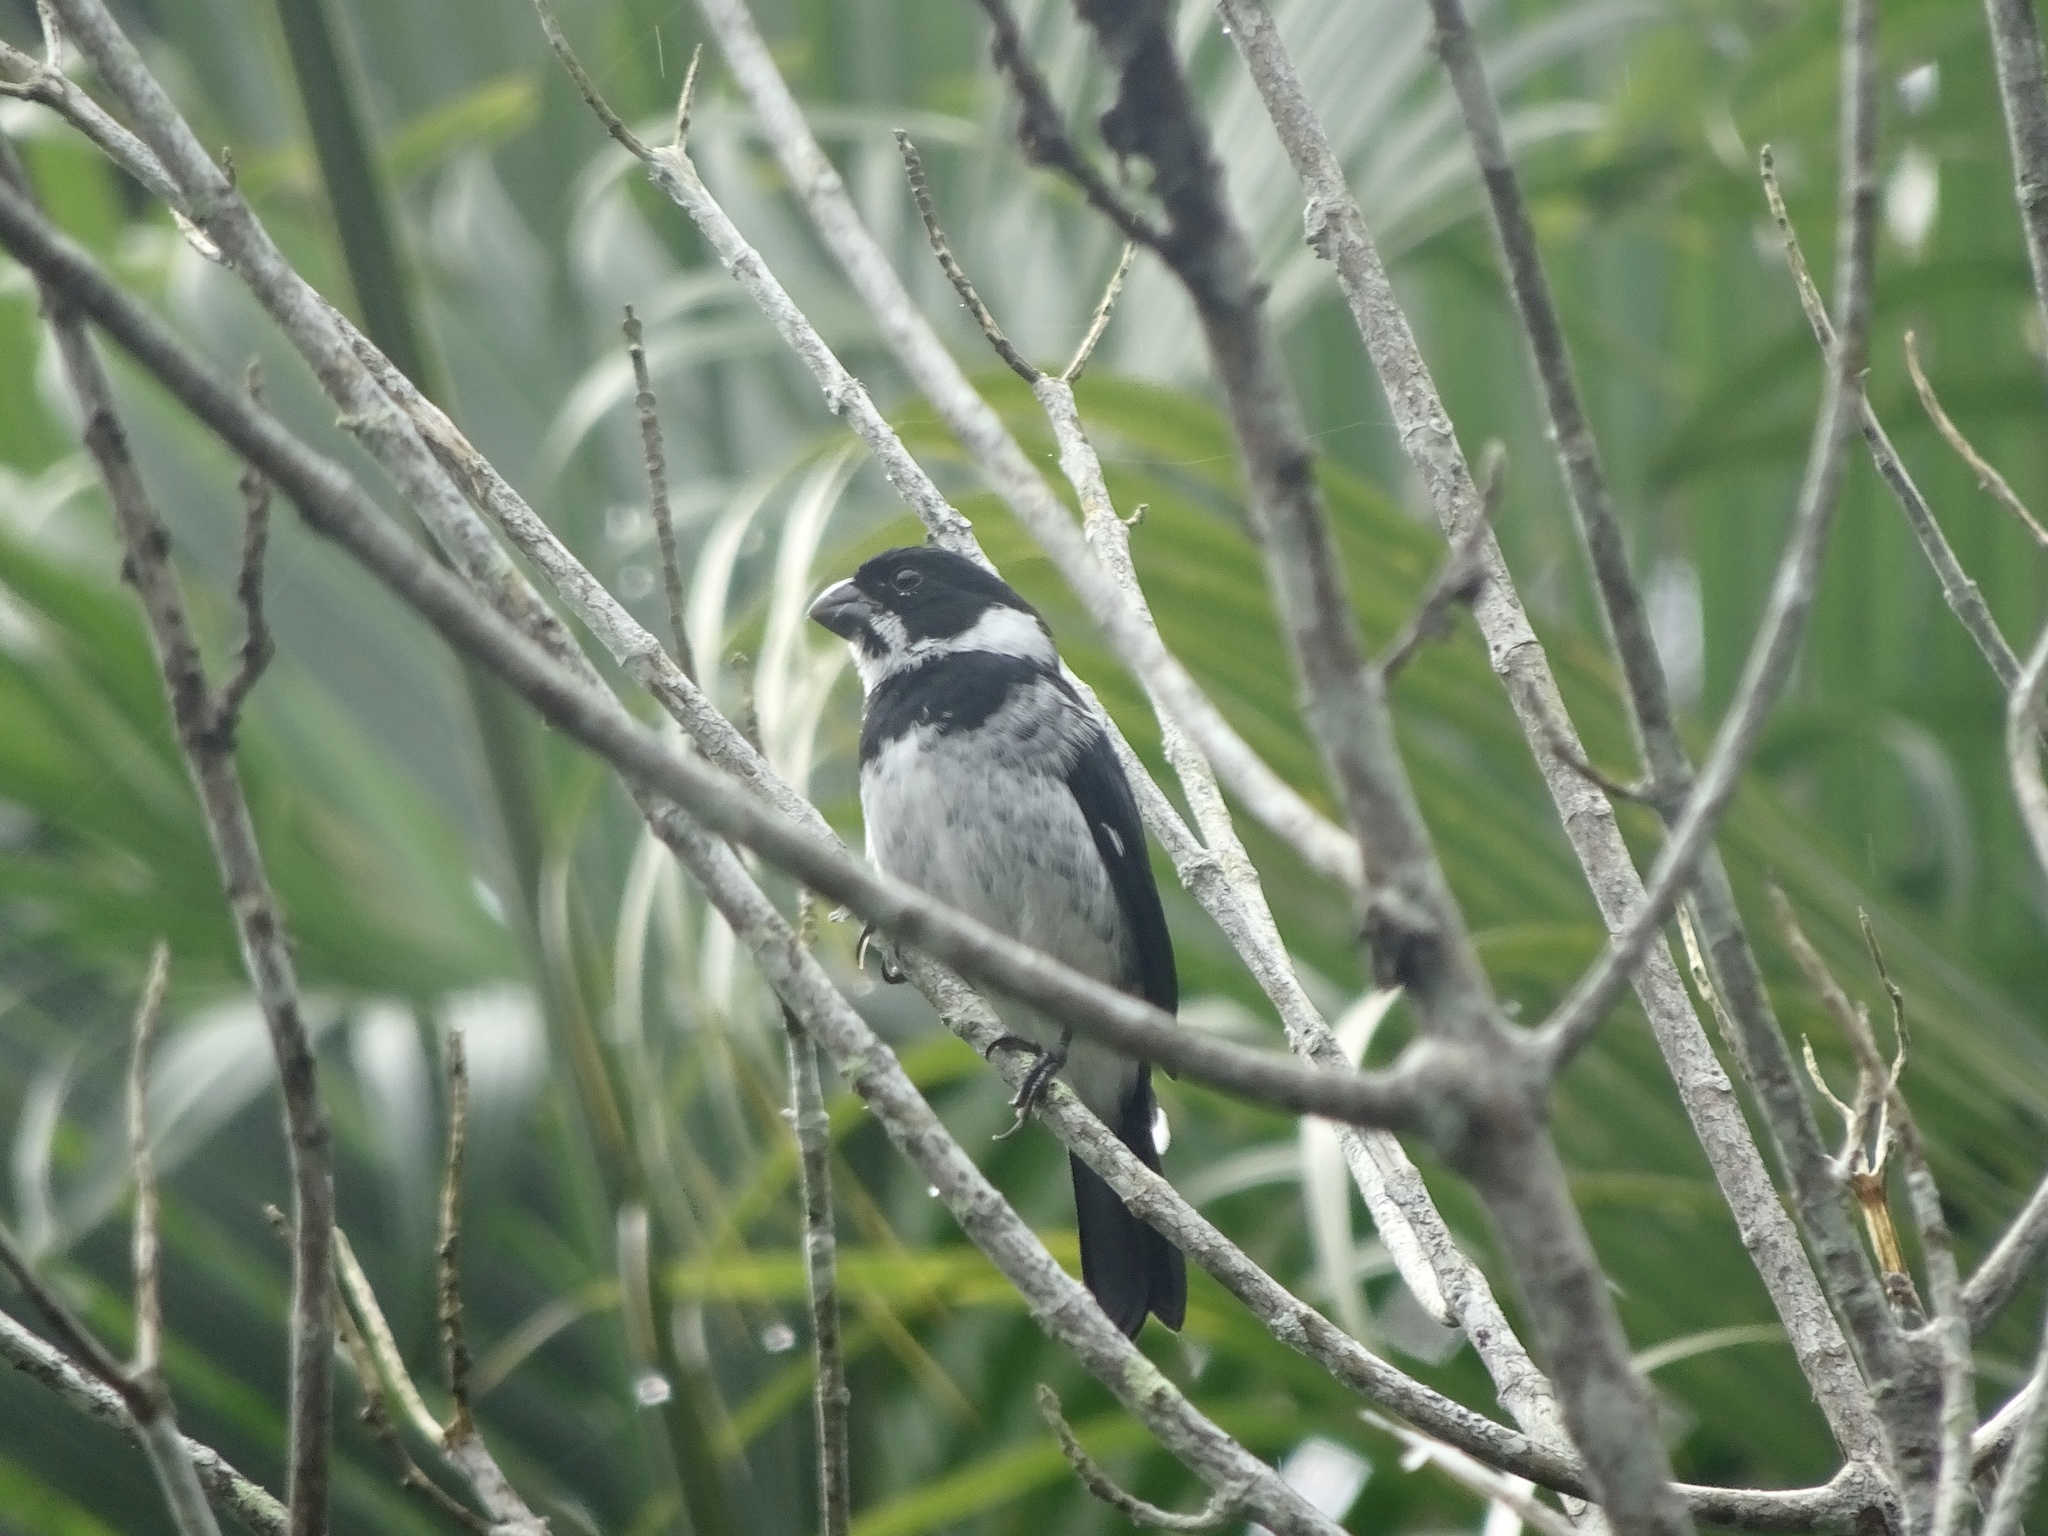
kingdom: Animalia
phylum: Chordata
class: Aves
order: Passeriformes
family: Thraupidae
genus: Sporophila
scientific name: Sporophila corvina
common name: Variable seedeater
